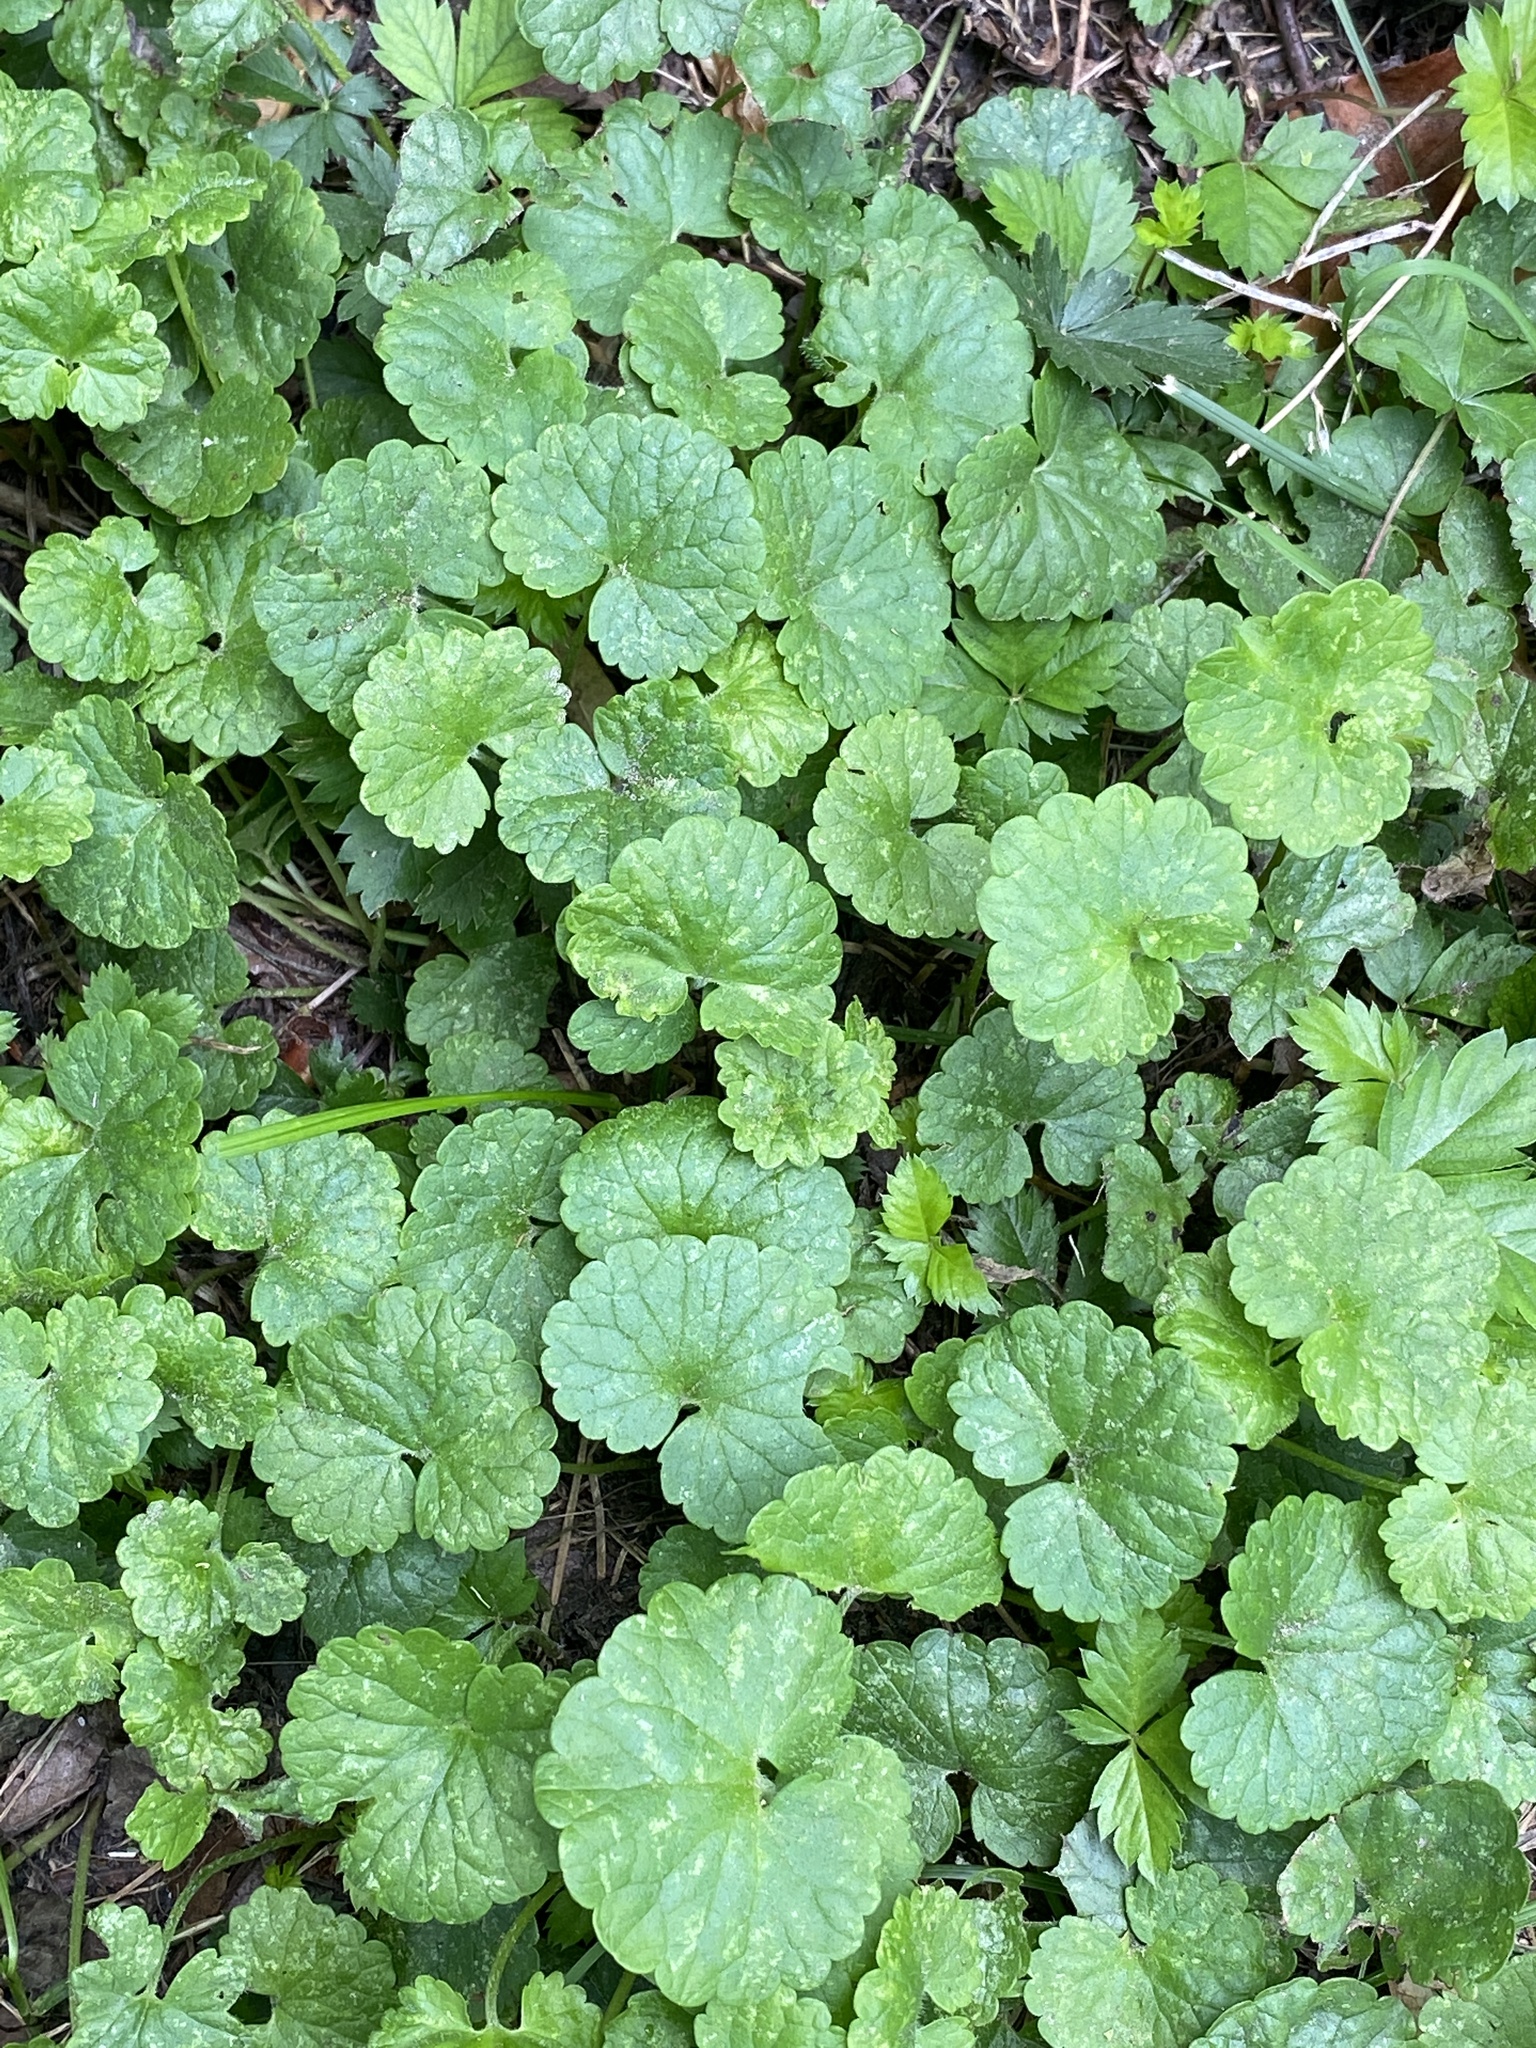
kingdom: Plantae
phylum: Tracheophyta
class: Magnoliopsida
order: Lamiales
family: Lamiaceae
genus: Glechoma
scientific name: Glechoma hederacea
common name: Ground ivy
